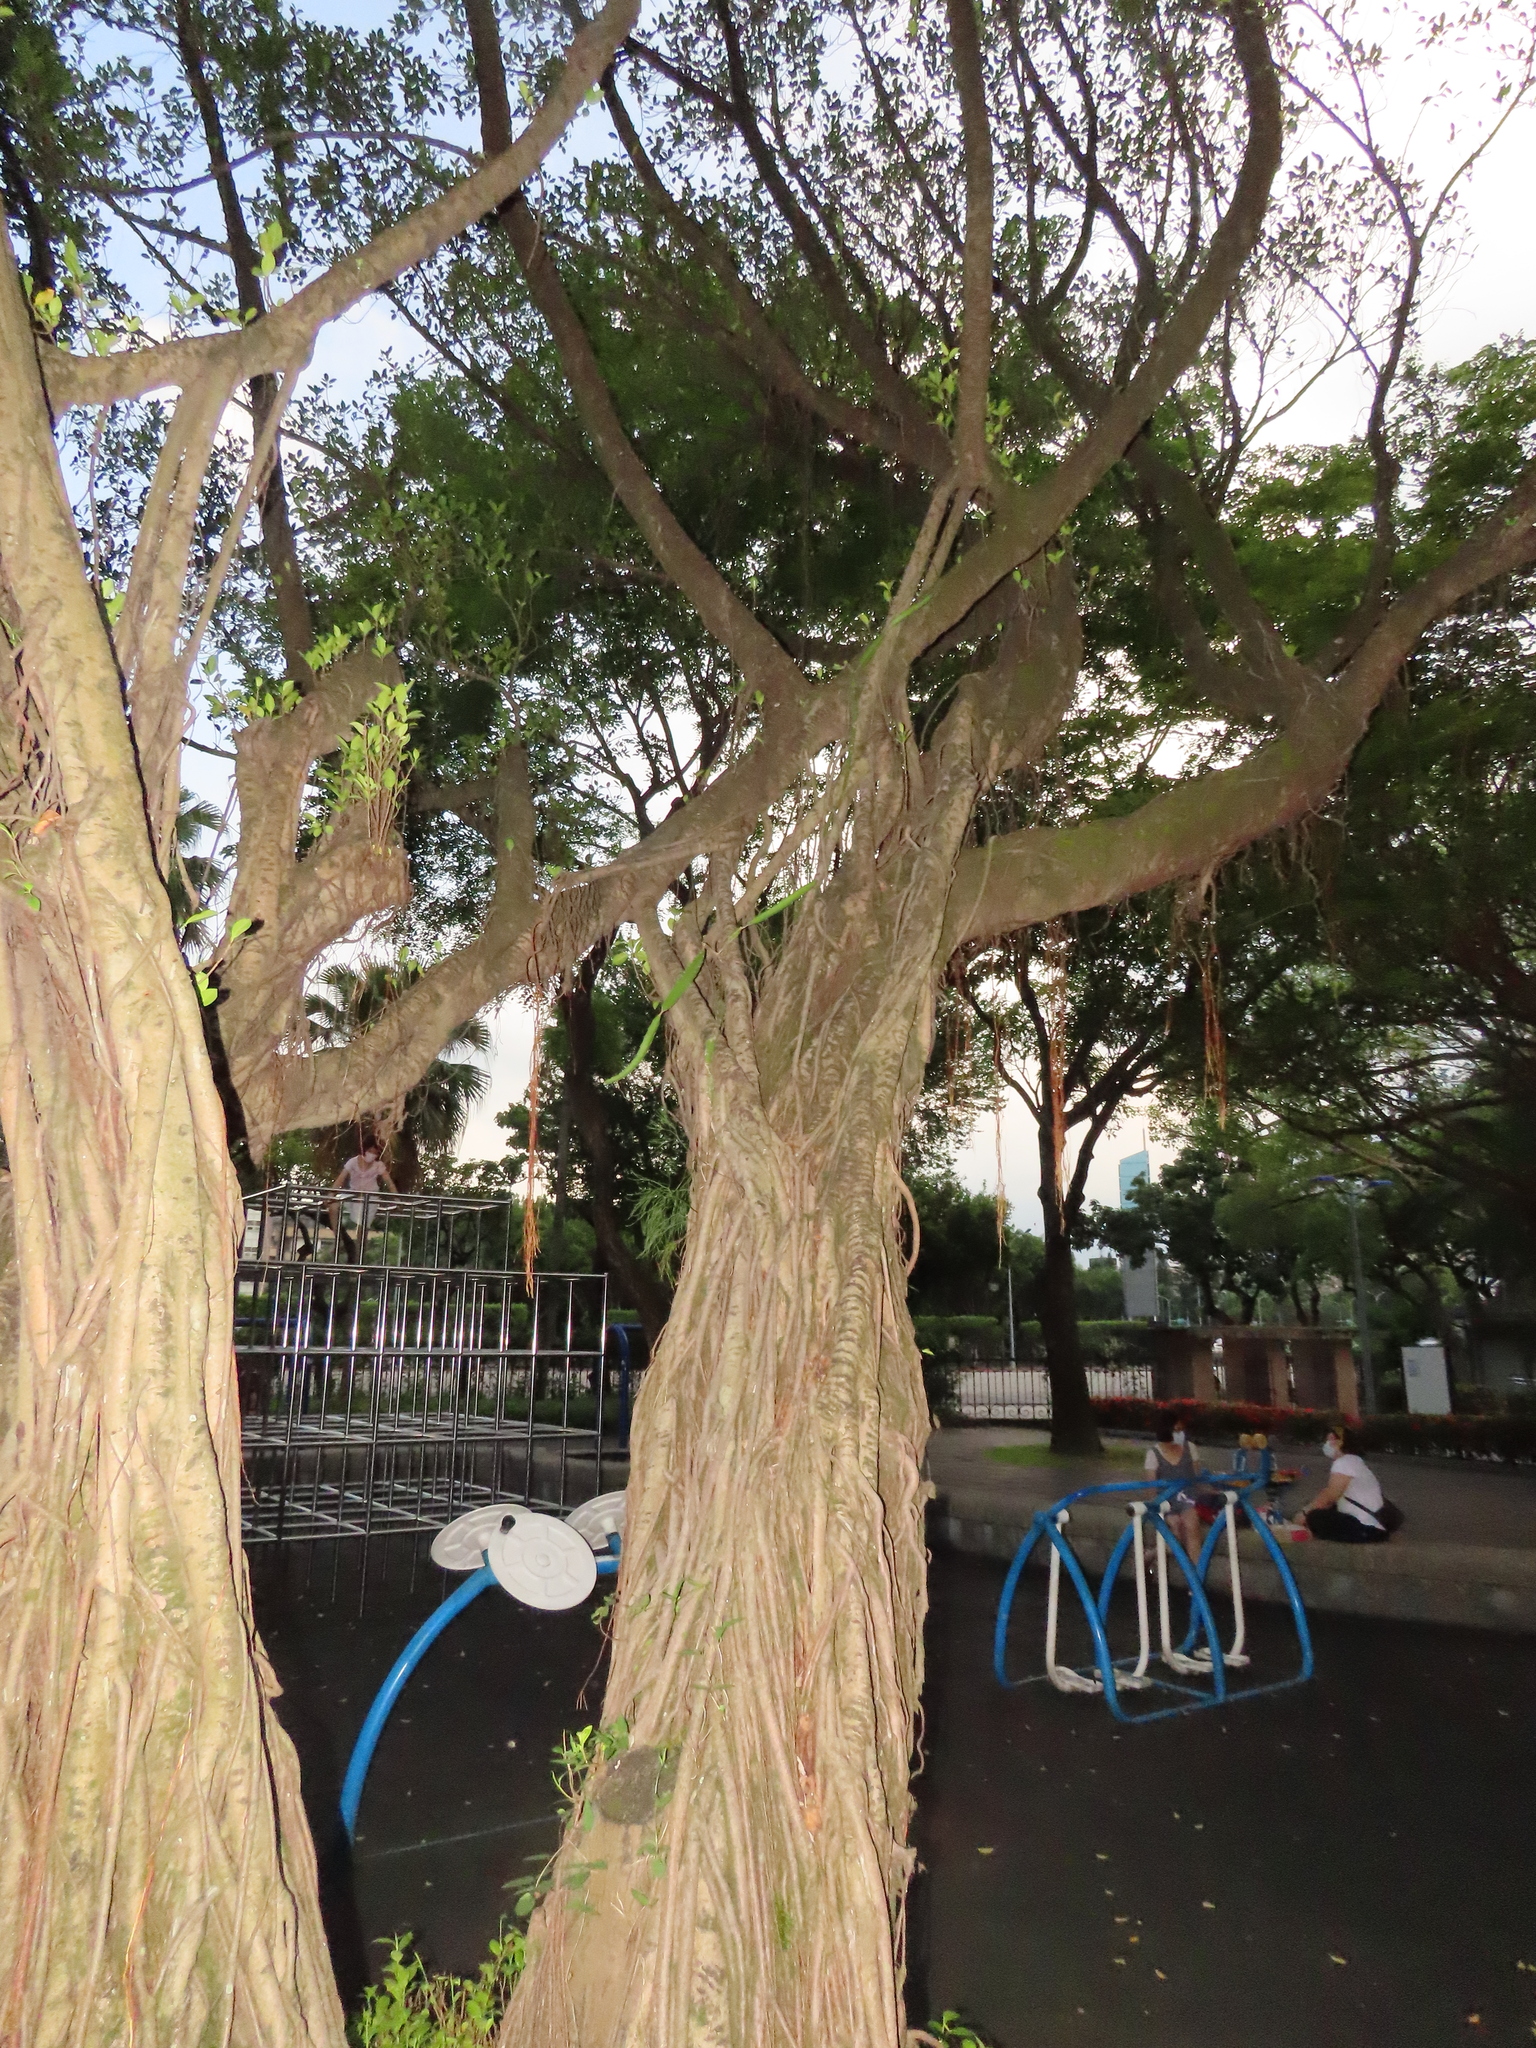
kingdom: Plantae
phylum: Tracheophyta
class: Magnoliopsida
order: Caryophyllales
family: Cactaceae
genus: Selenicereus
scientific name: Selenicereus undatus
